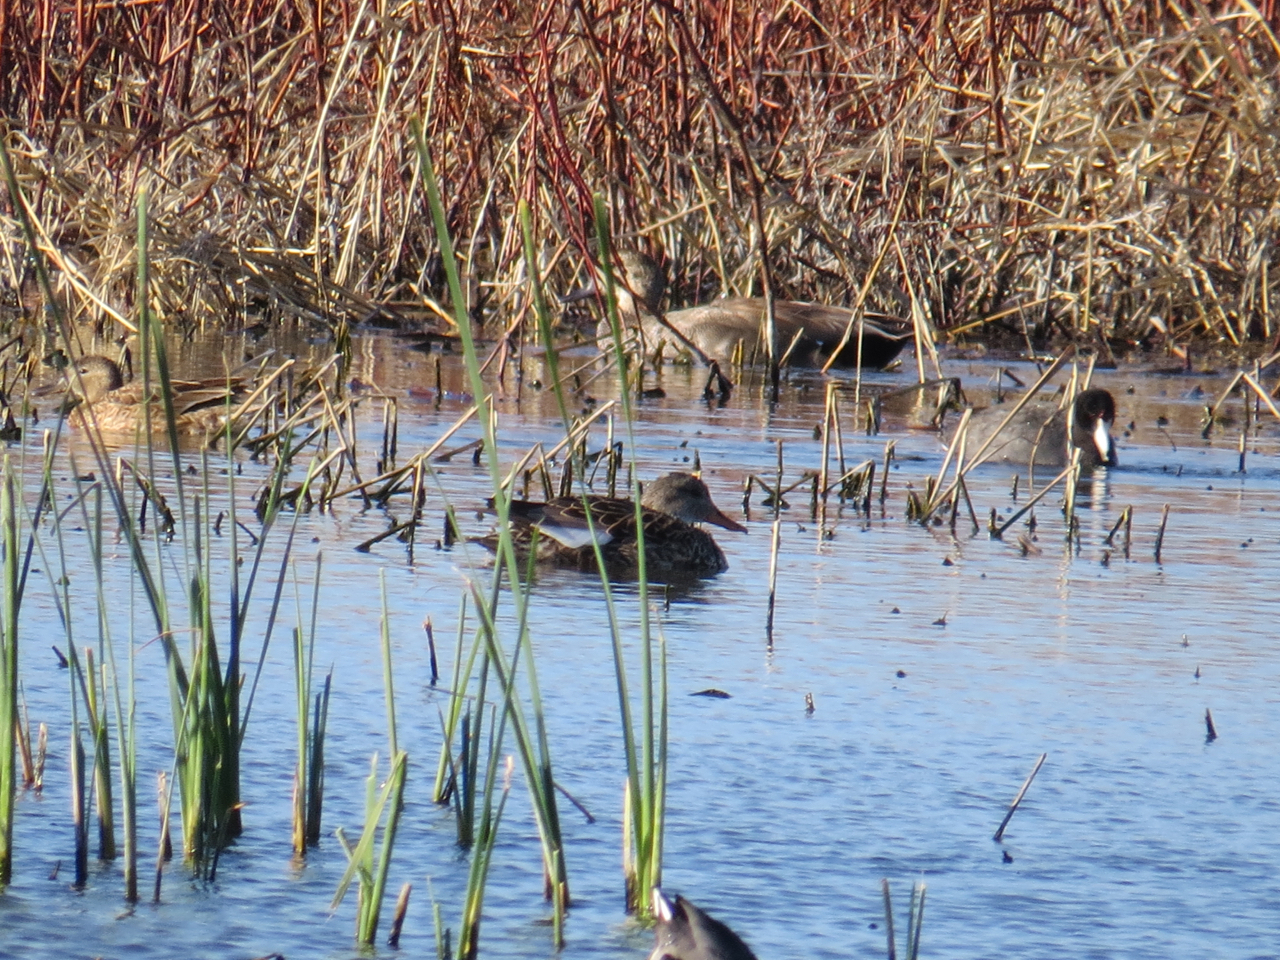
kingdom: Animalia
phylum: Chordata
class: Aves
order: Anseriformes
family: Anatidae
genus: Mareca
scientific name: Mareca strepera
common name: Gadwall
